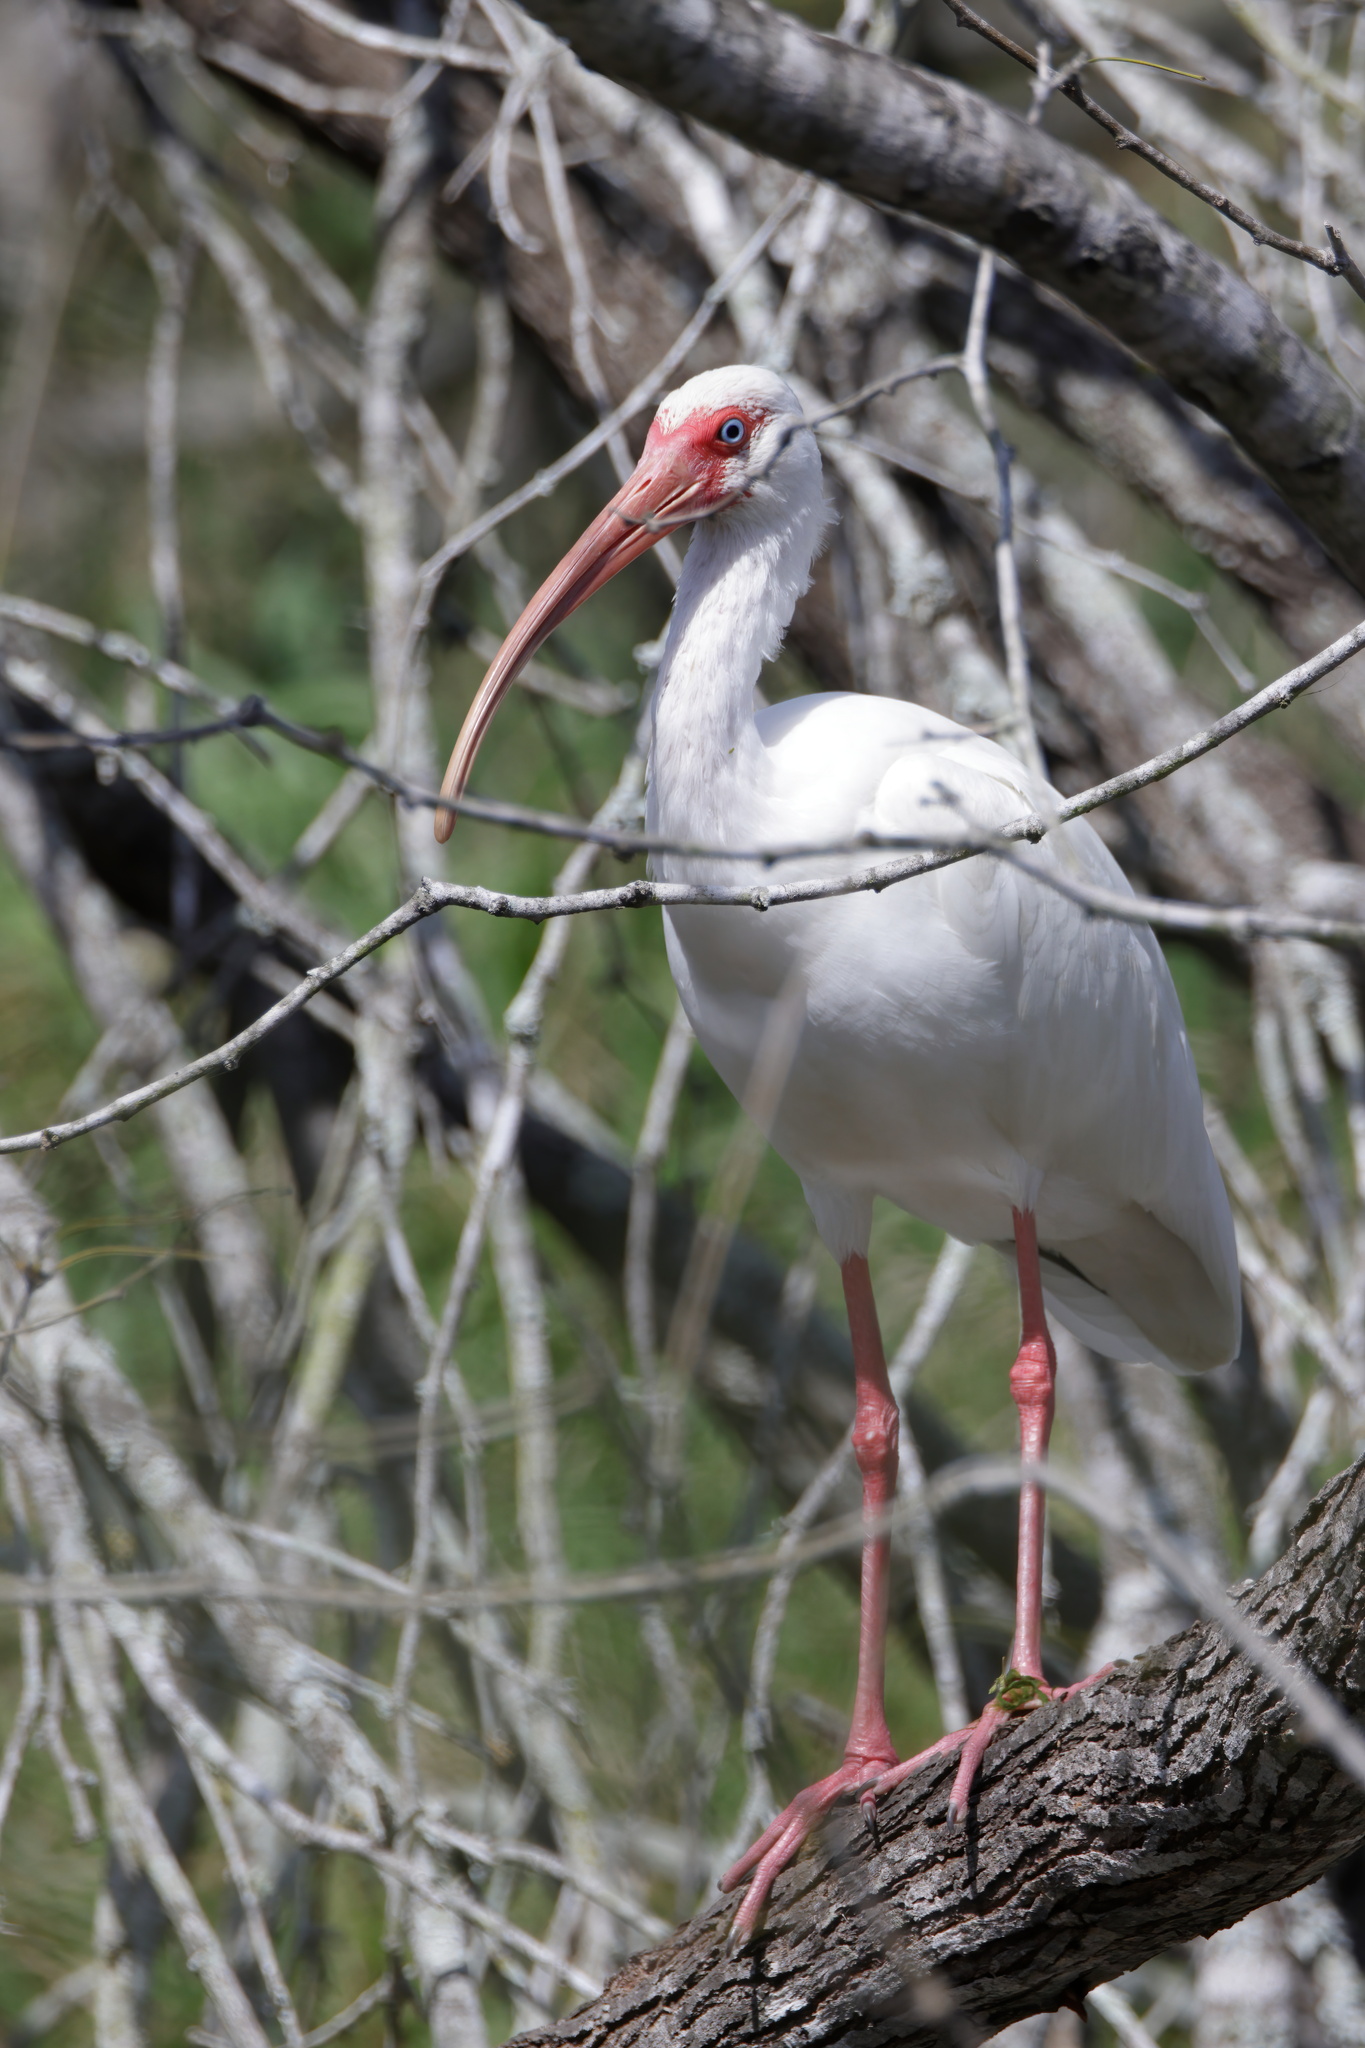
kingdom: Animalia
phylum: Chordata
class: Aves
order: Pelecaniformes
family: Threskiornithidae
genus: Eudocimus
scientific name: Eudocimus albus
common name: White ibis
